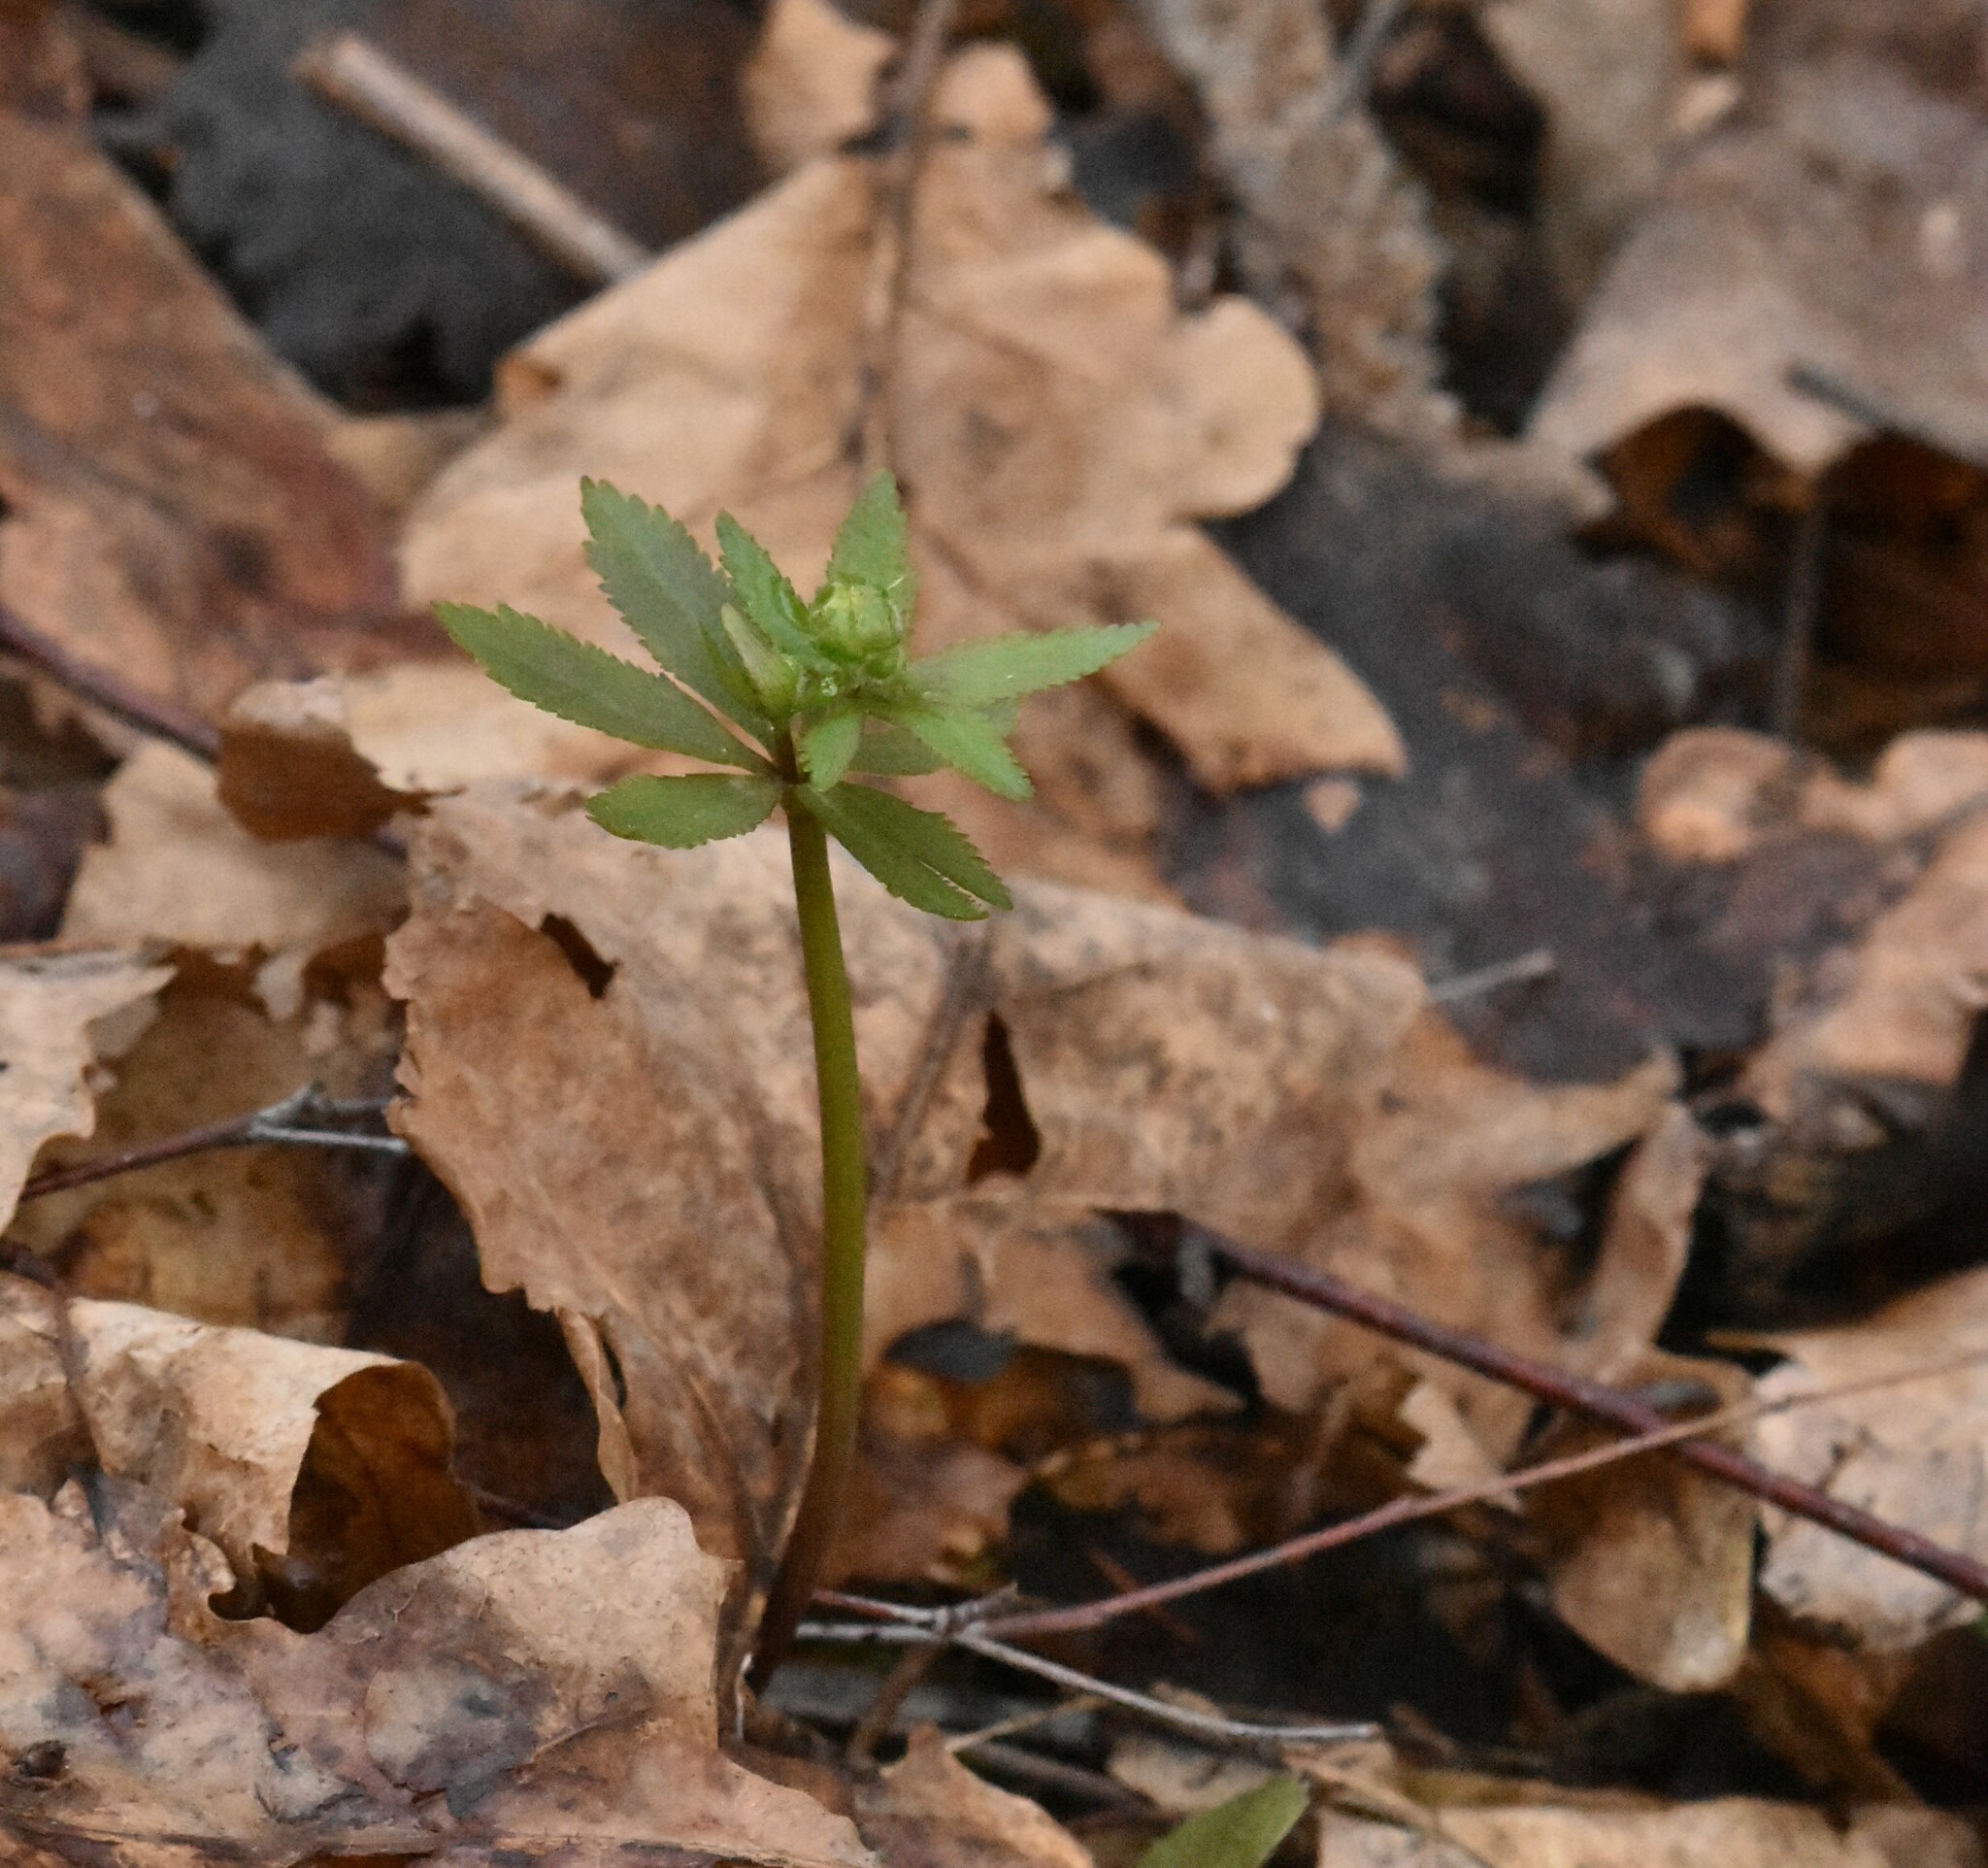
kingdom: Plantae
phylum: Tracheophyta
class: Magnoliopsida
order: Ranunculales
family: Ranunculaceae
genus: Ranunculus
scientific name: Ranunculus cassubicus
